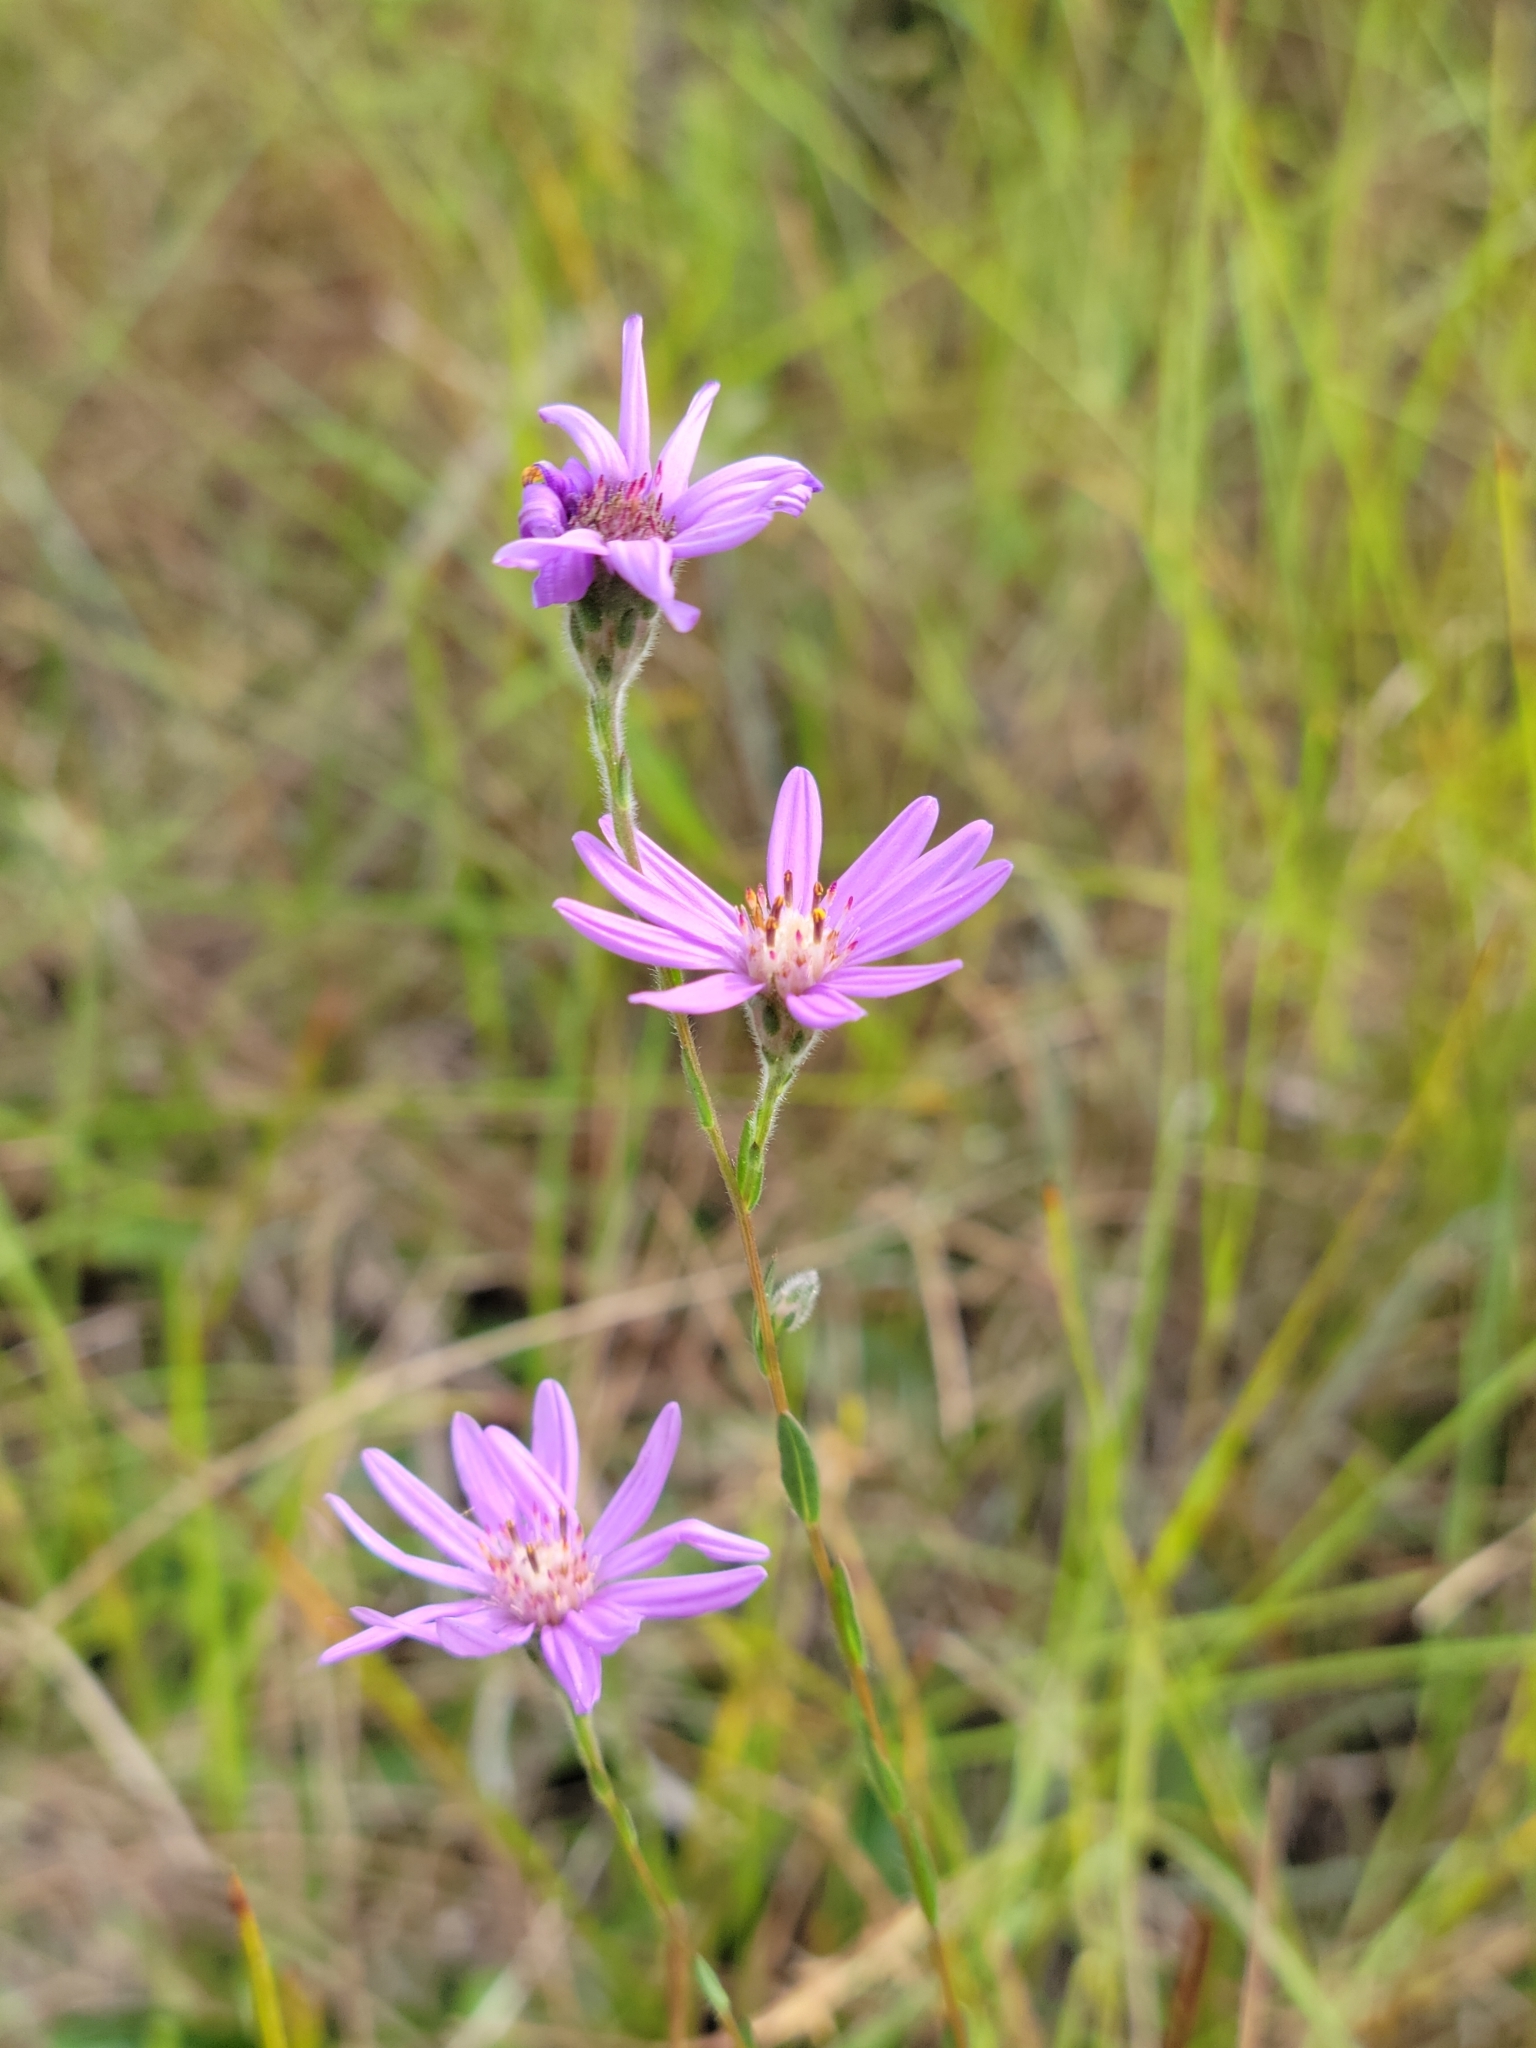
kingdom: Plantae
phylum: Tracheophyta
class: Magnoliopsida
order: Asterales
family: Asteraceae
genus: Symphyotrichum
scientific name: Symphyotrichum concolor
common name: Eastern silver aster
